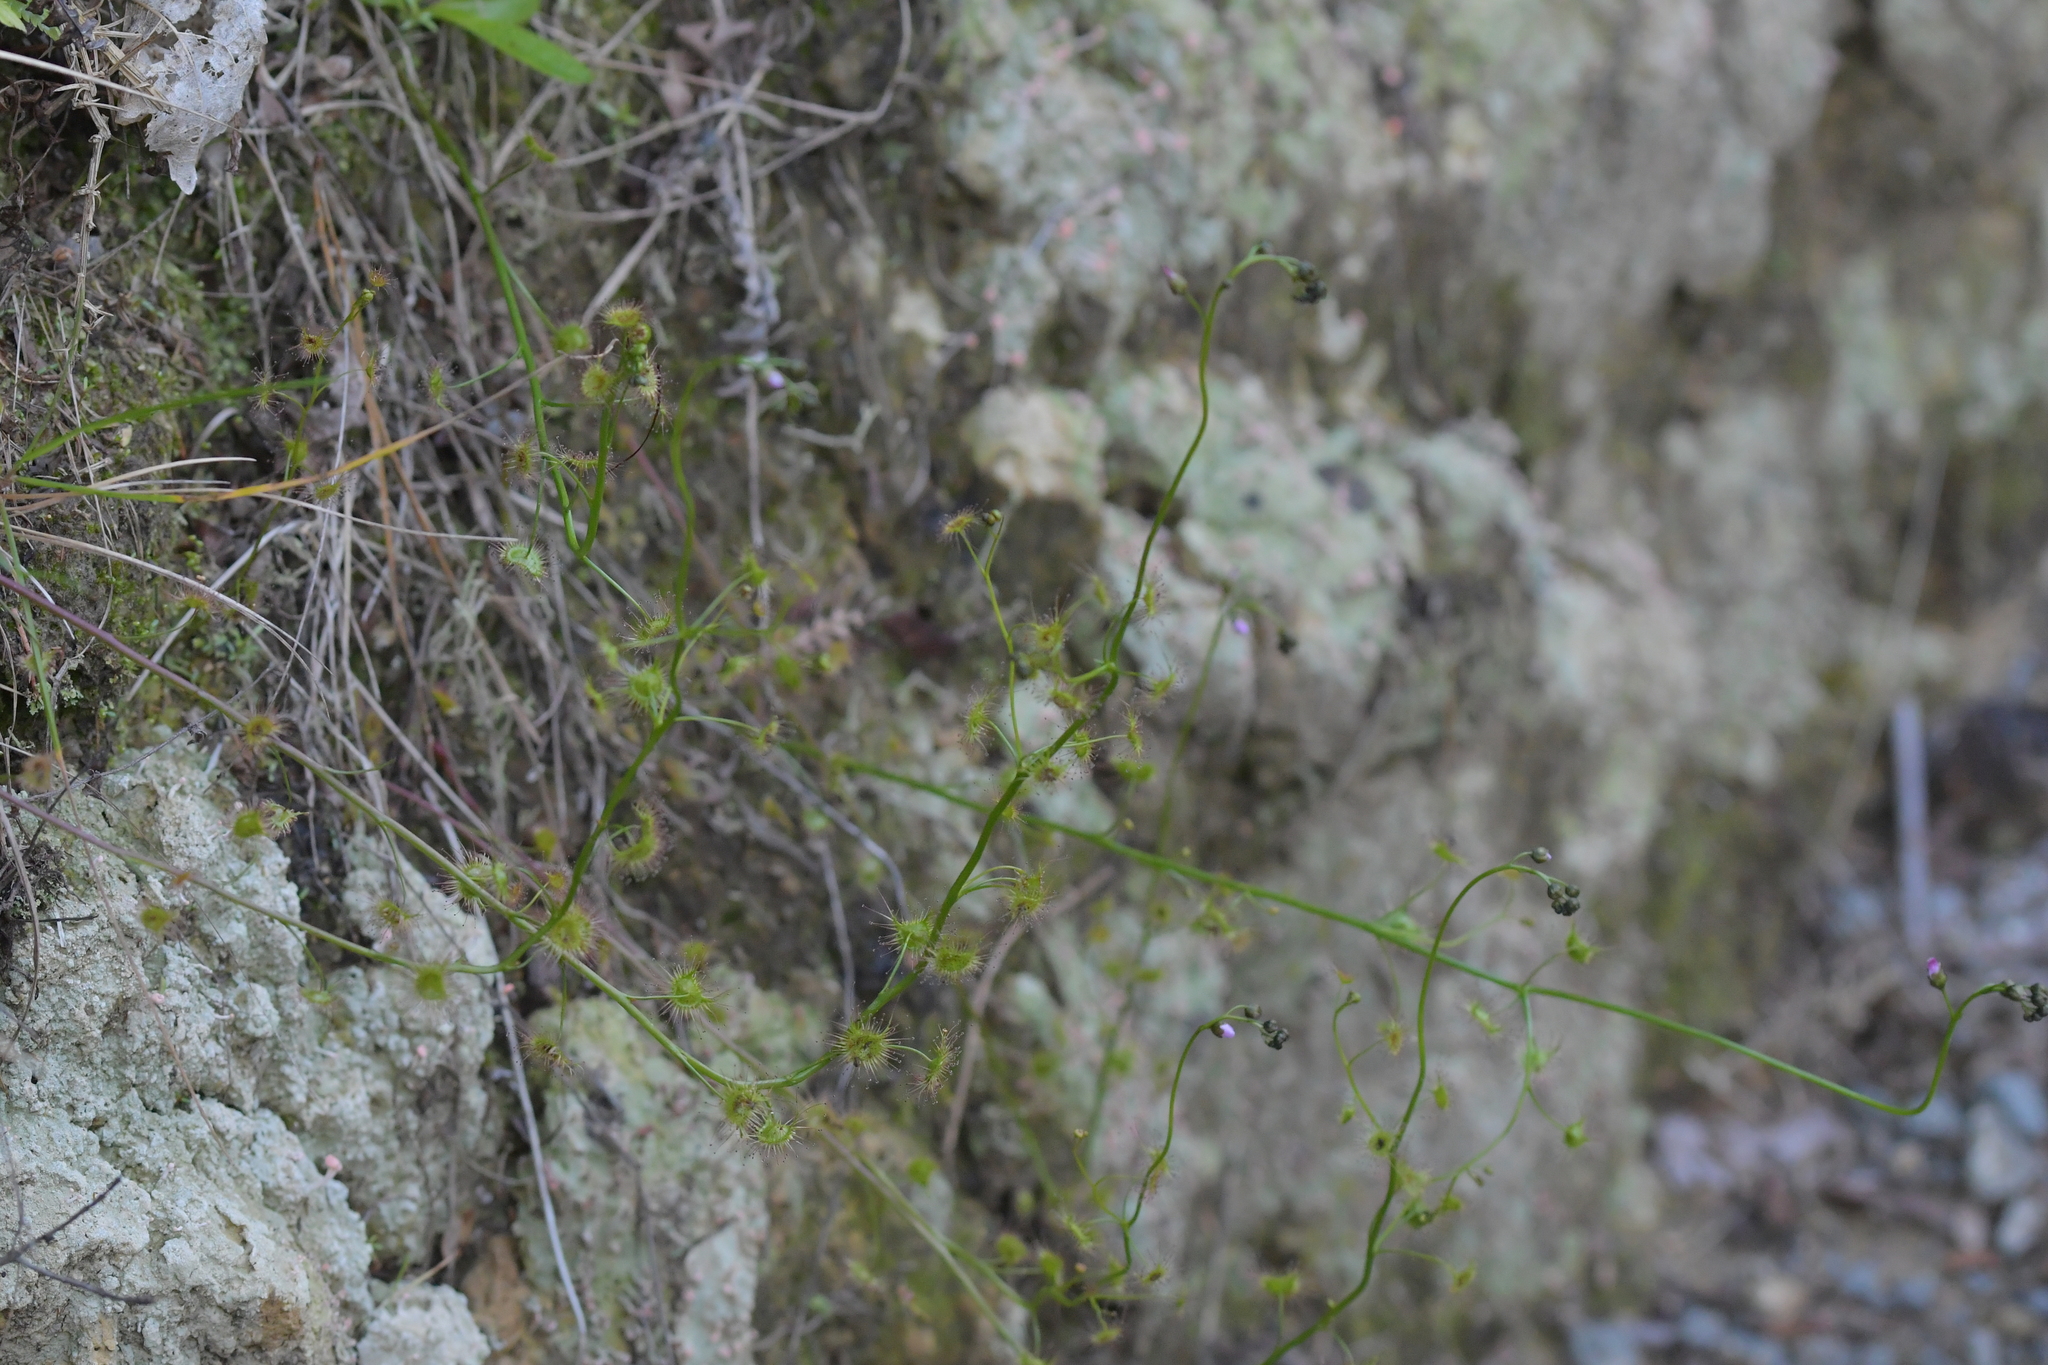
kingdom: Plantae
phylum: Tracheophyta
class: Magnoliopsida
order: Caryophyllales
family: Droseraceae
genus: Drosera
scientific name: Drosera peltata
